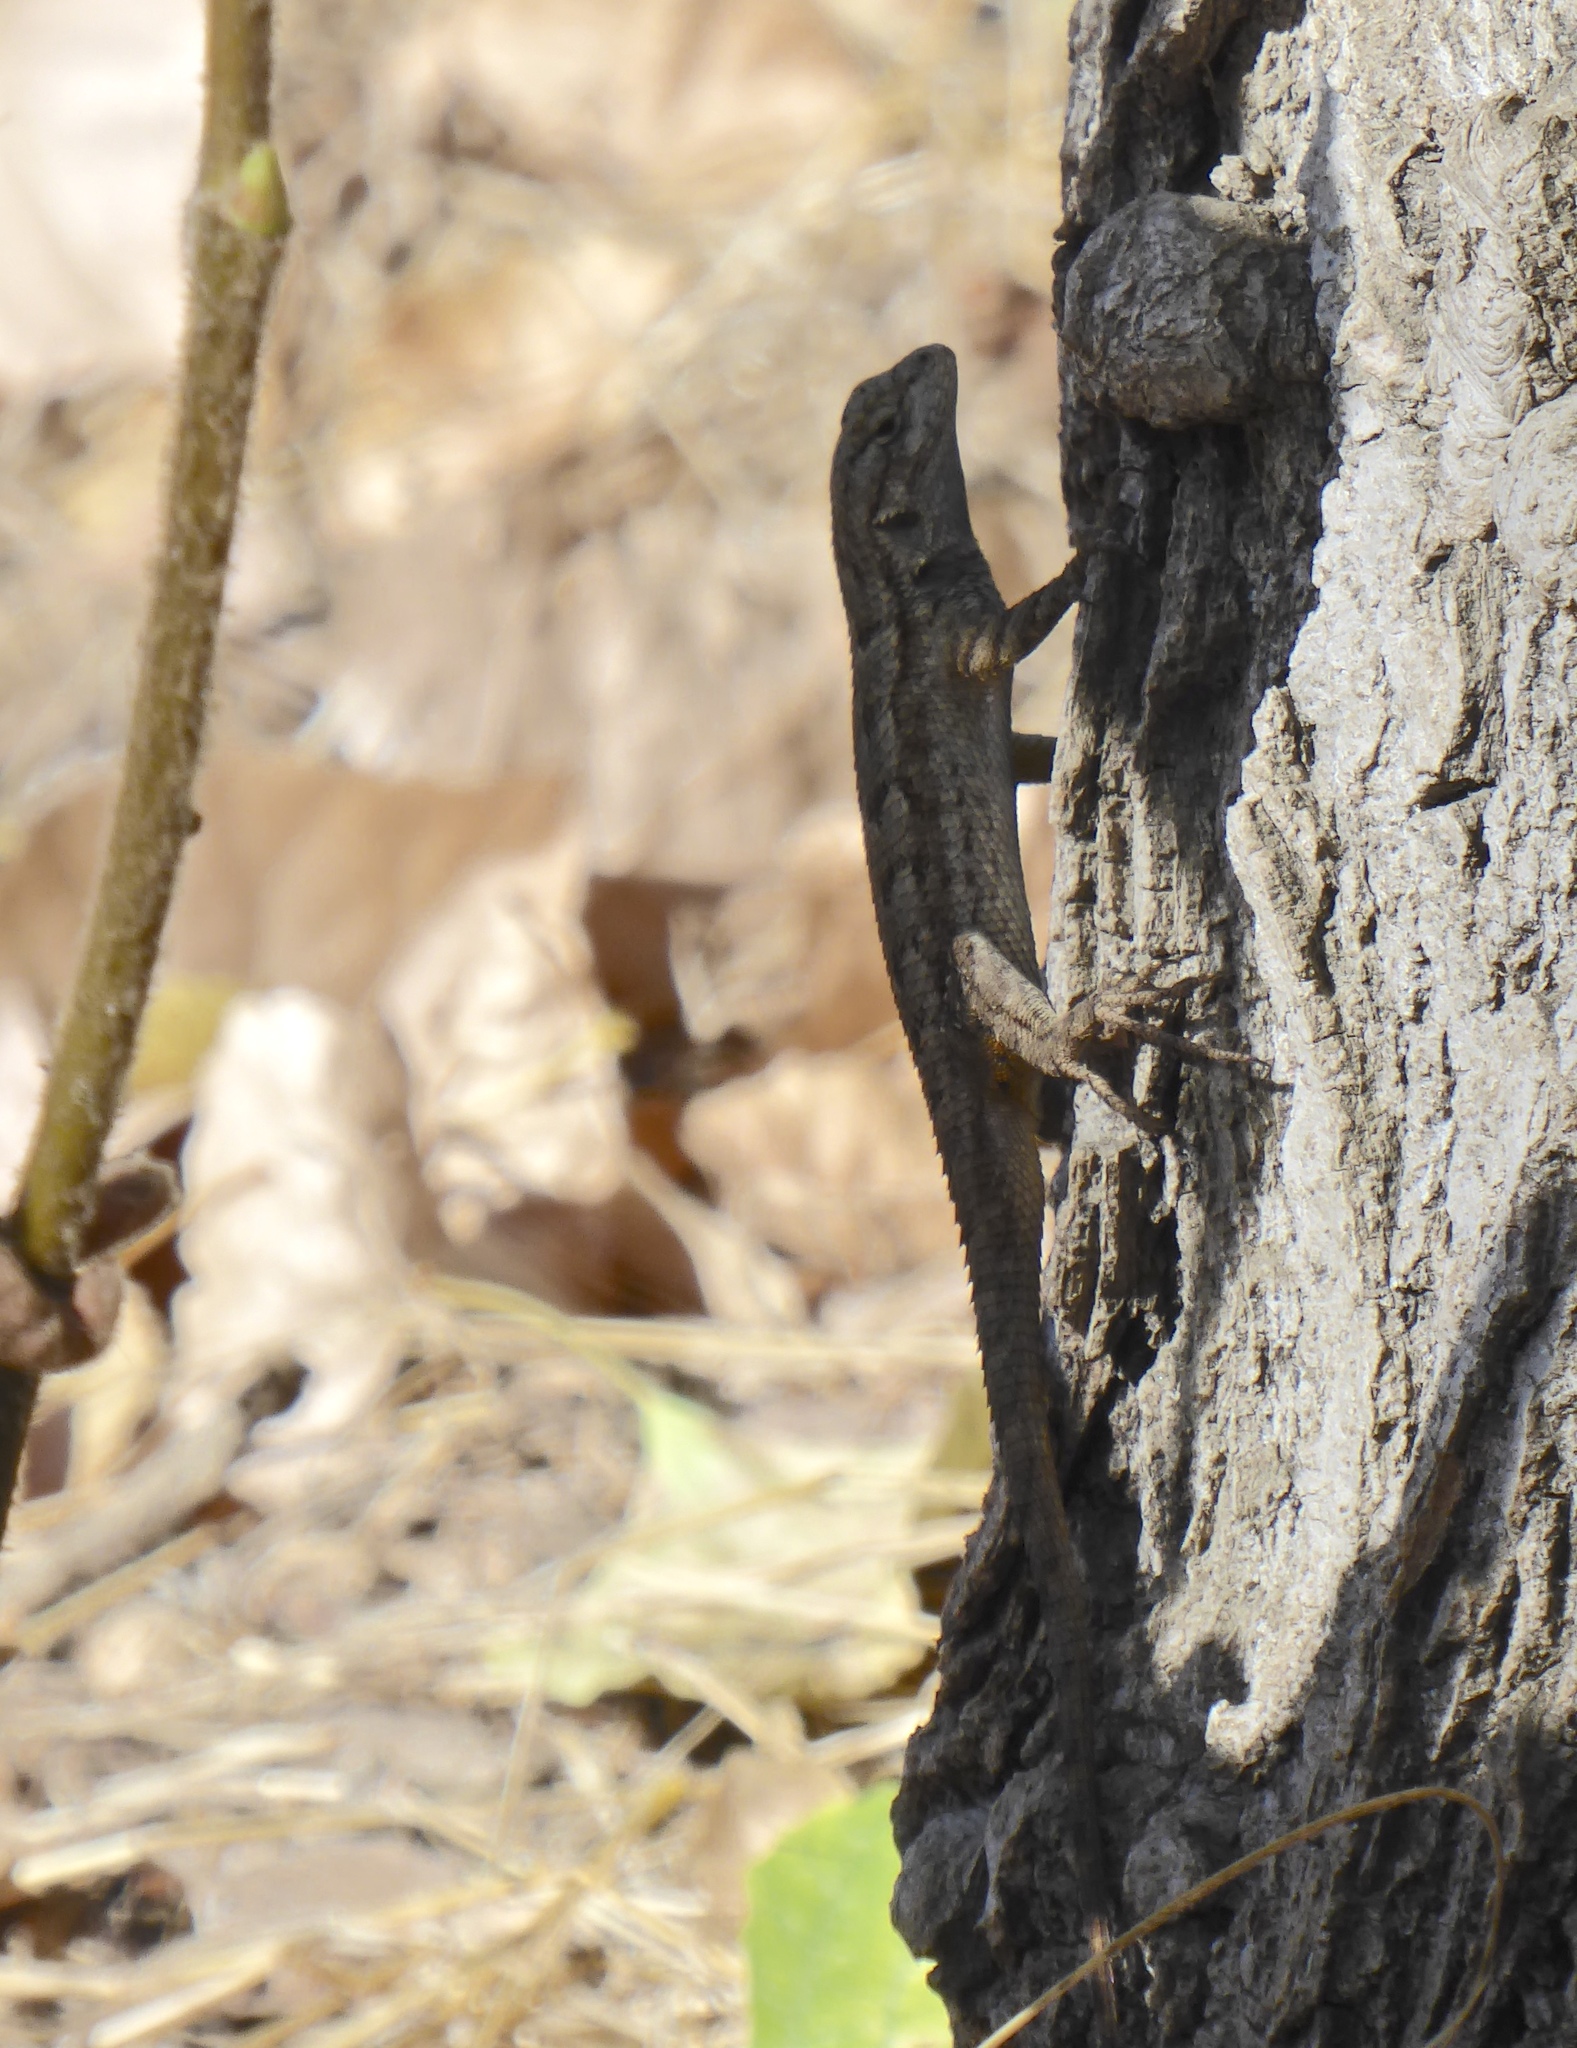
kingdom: Animalia
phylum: Chordata
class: Squamata
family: Phrynosomatidae
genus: Sceloporus
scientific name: Sceloporus occidentalis
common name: Western fence lizard
